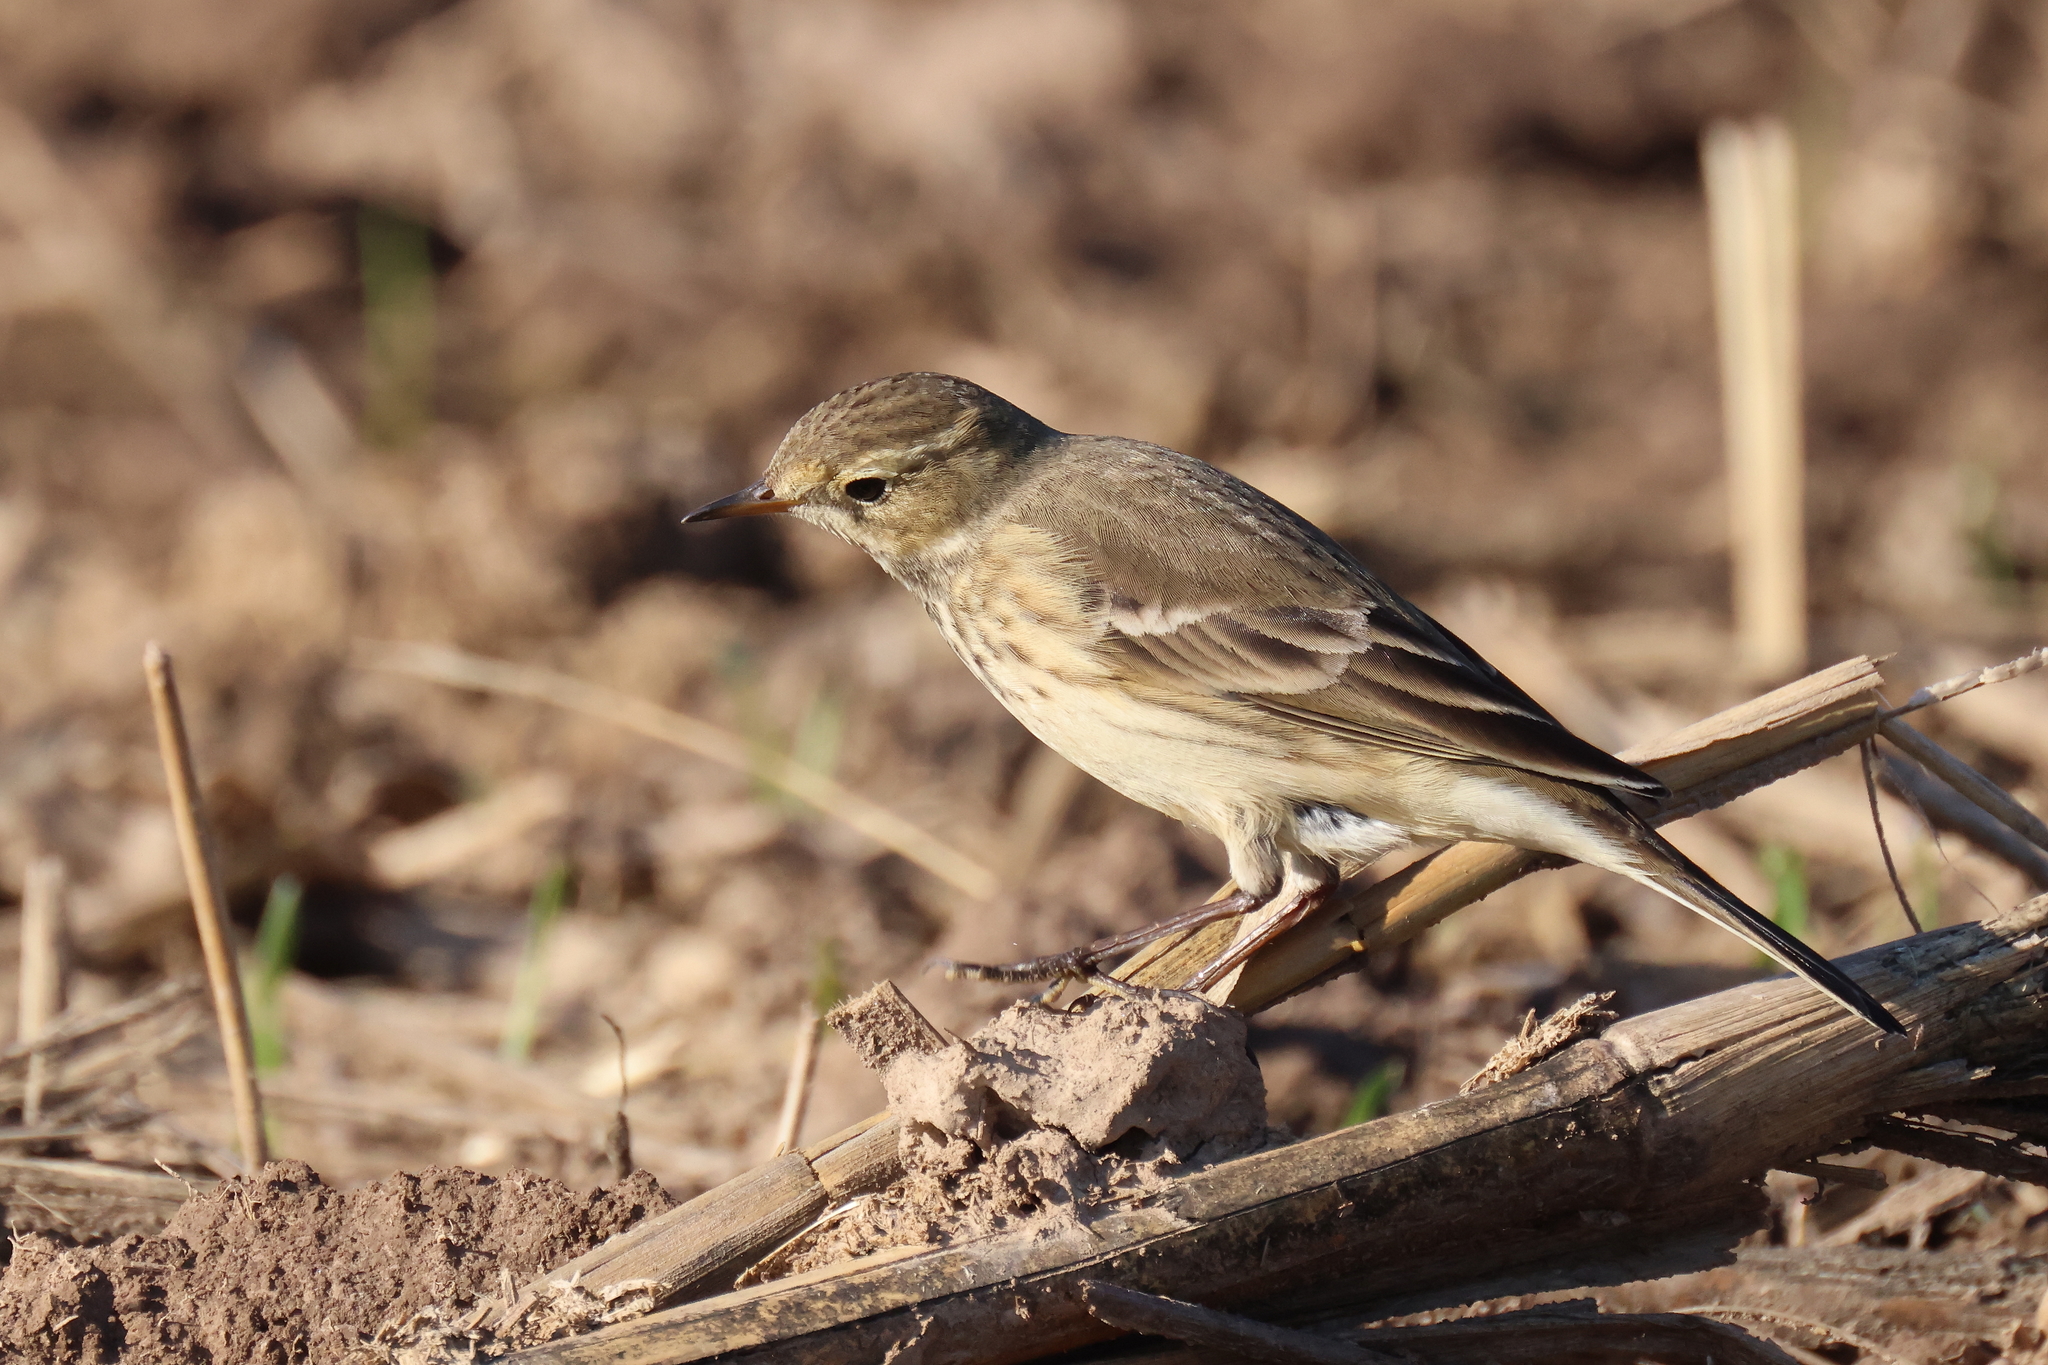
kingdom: Animalia
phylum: Chordata
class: Aves
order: Passeriformes
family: Motacillidae
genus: Anthus
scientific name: Anthus rubescens
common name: Buff-bellied pipit
